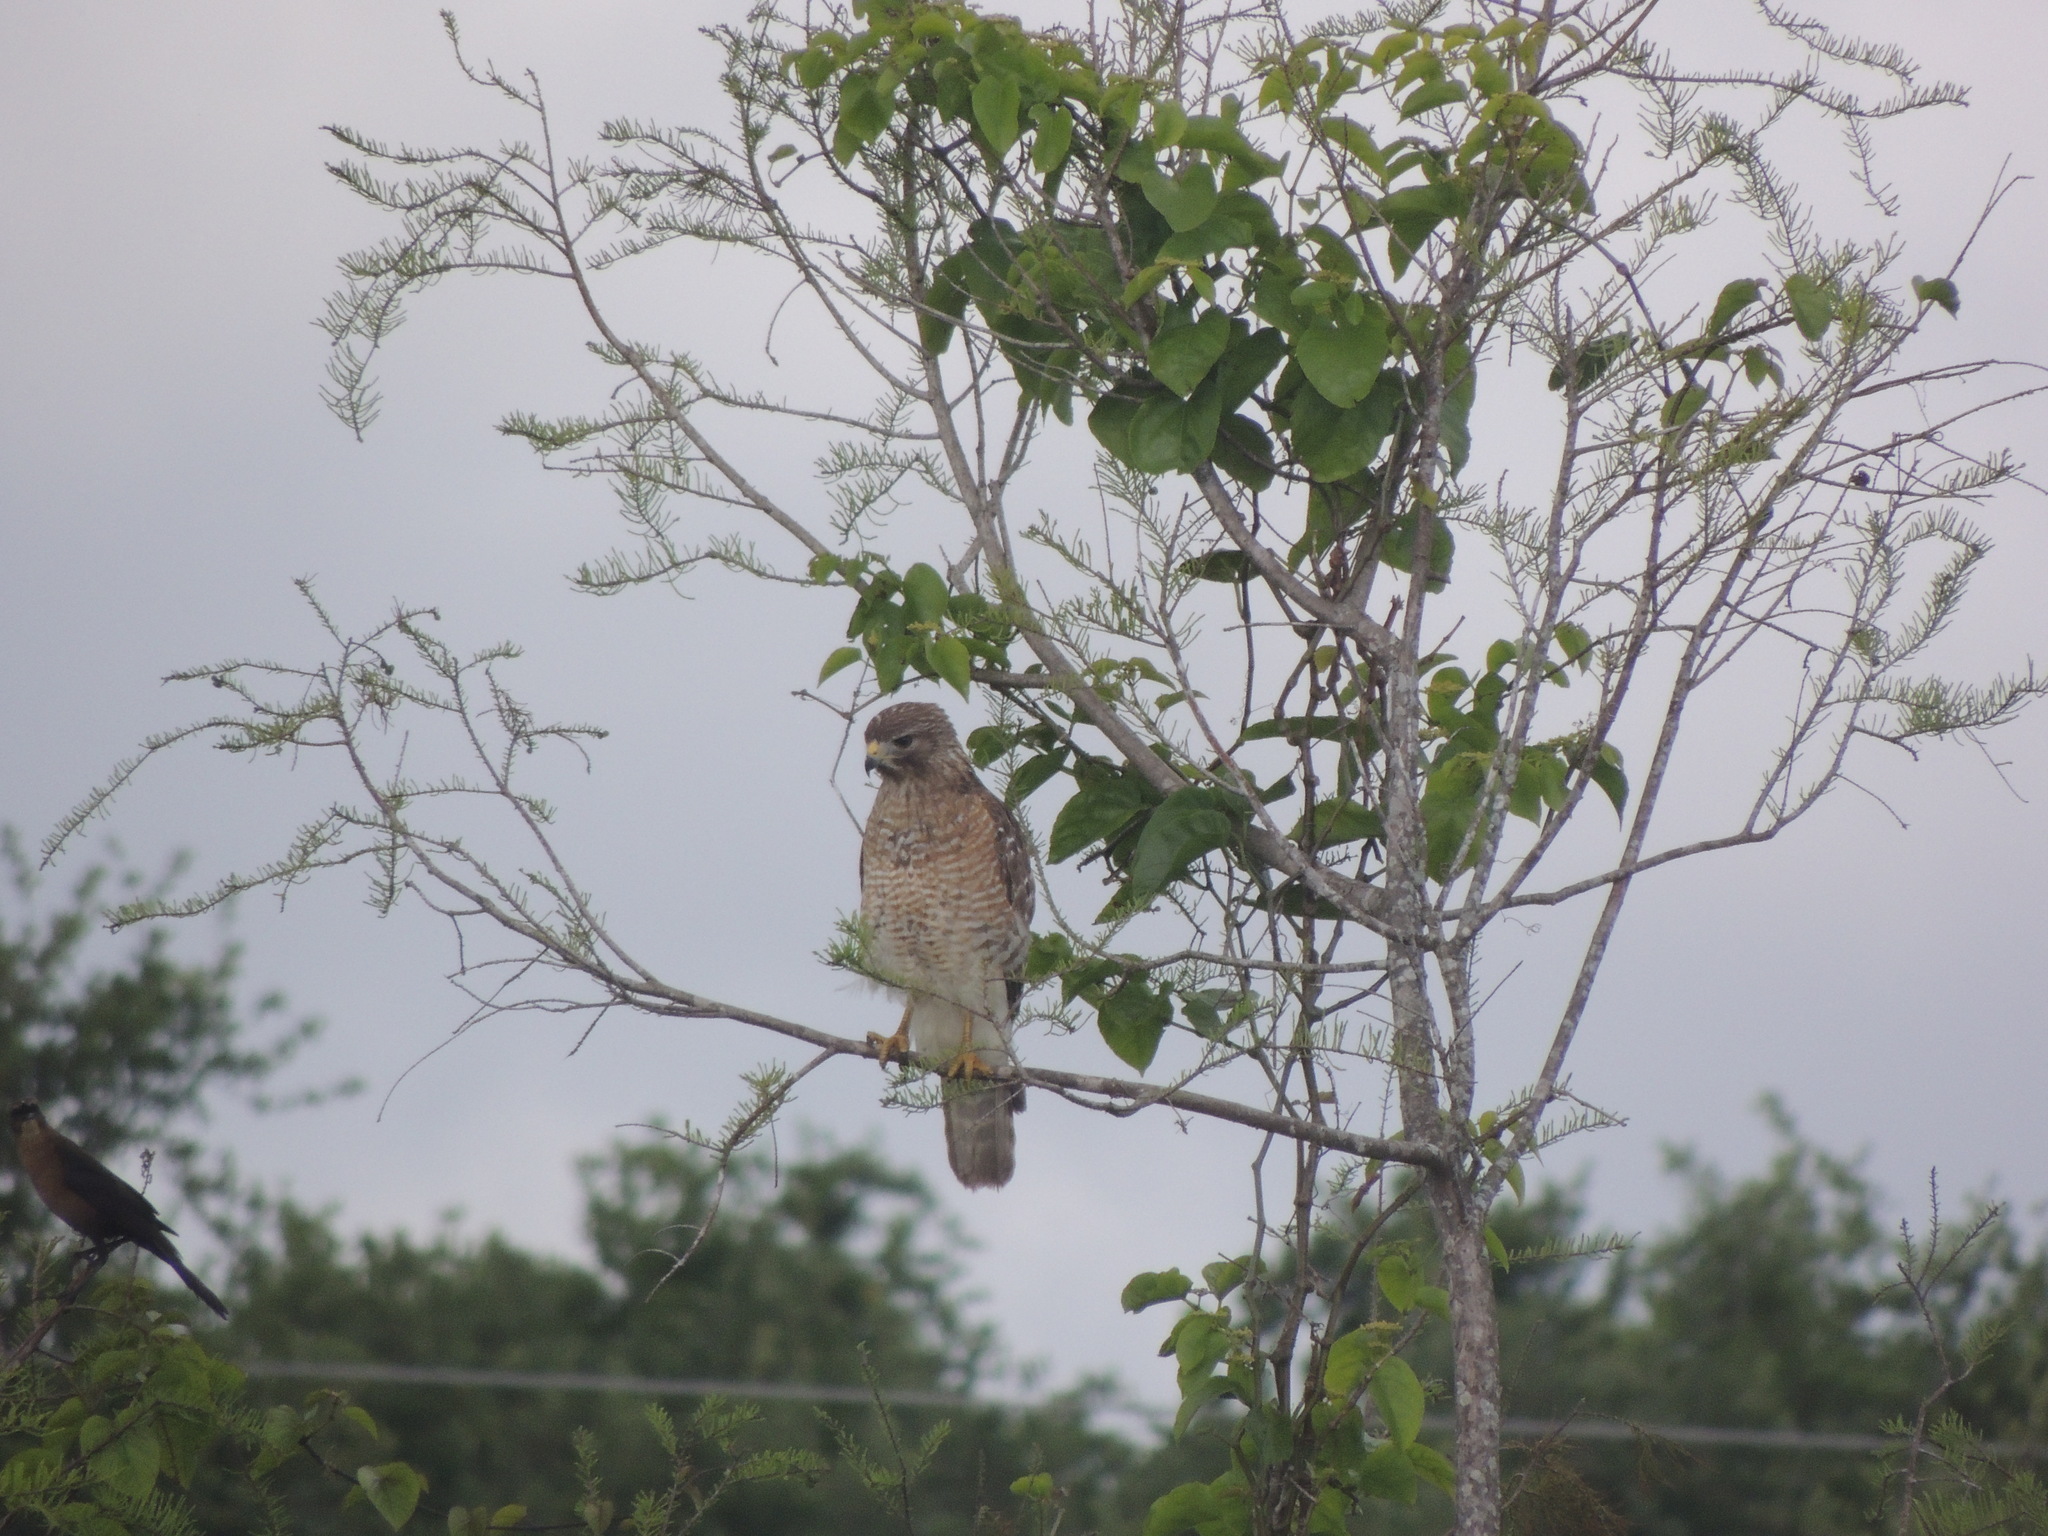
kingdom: Animalia
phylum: Chordata
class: Aves
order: Accipitriformes
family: Accipitridae
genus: Buteo
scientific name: Buteo lineatus
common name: Red-shouldered hawk
